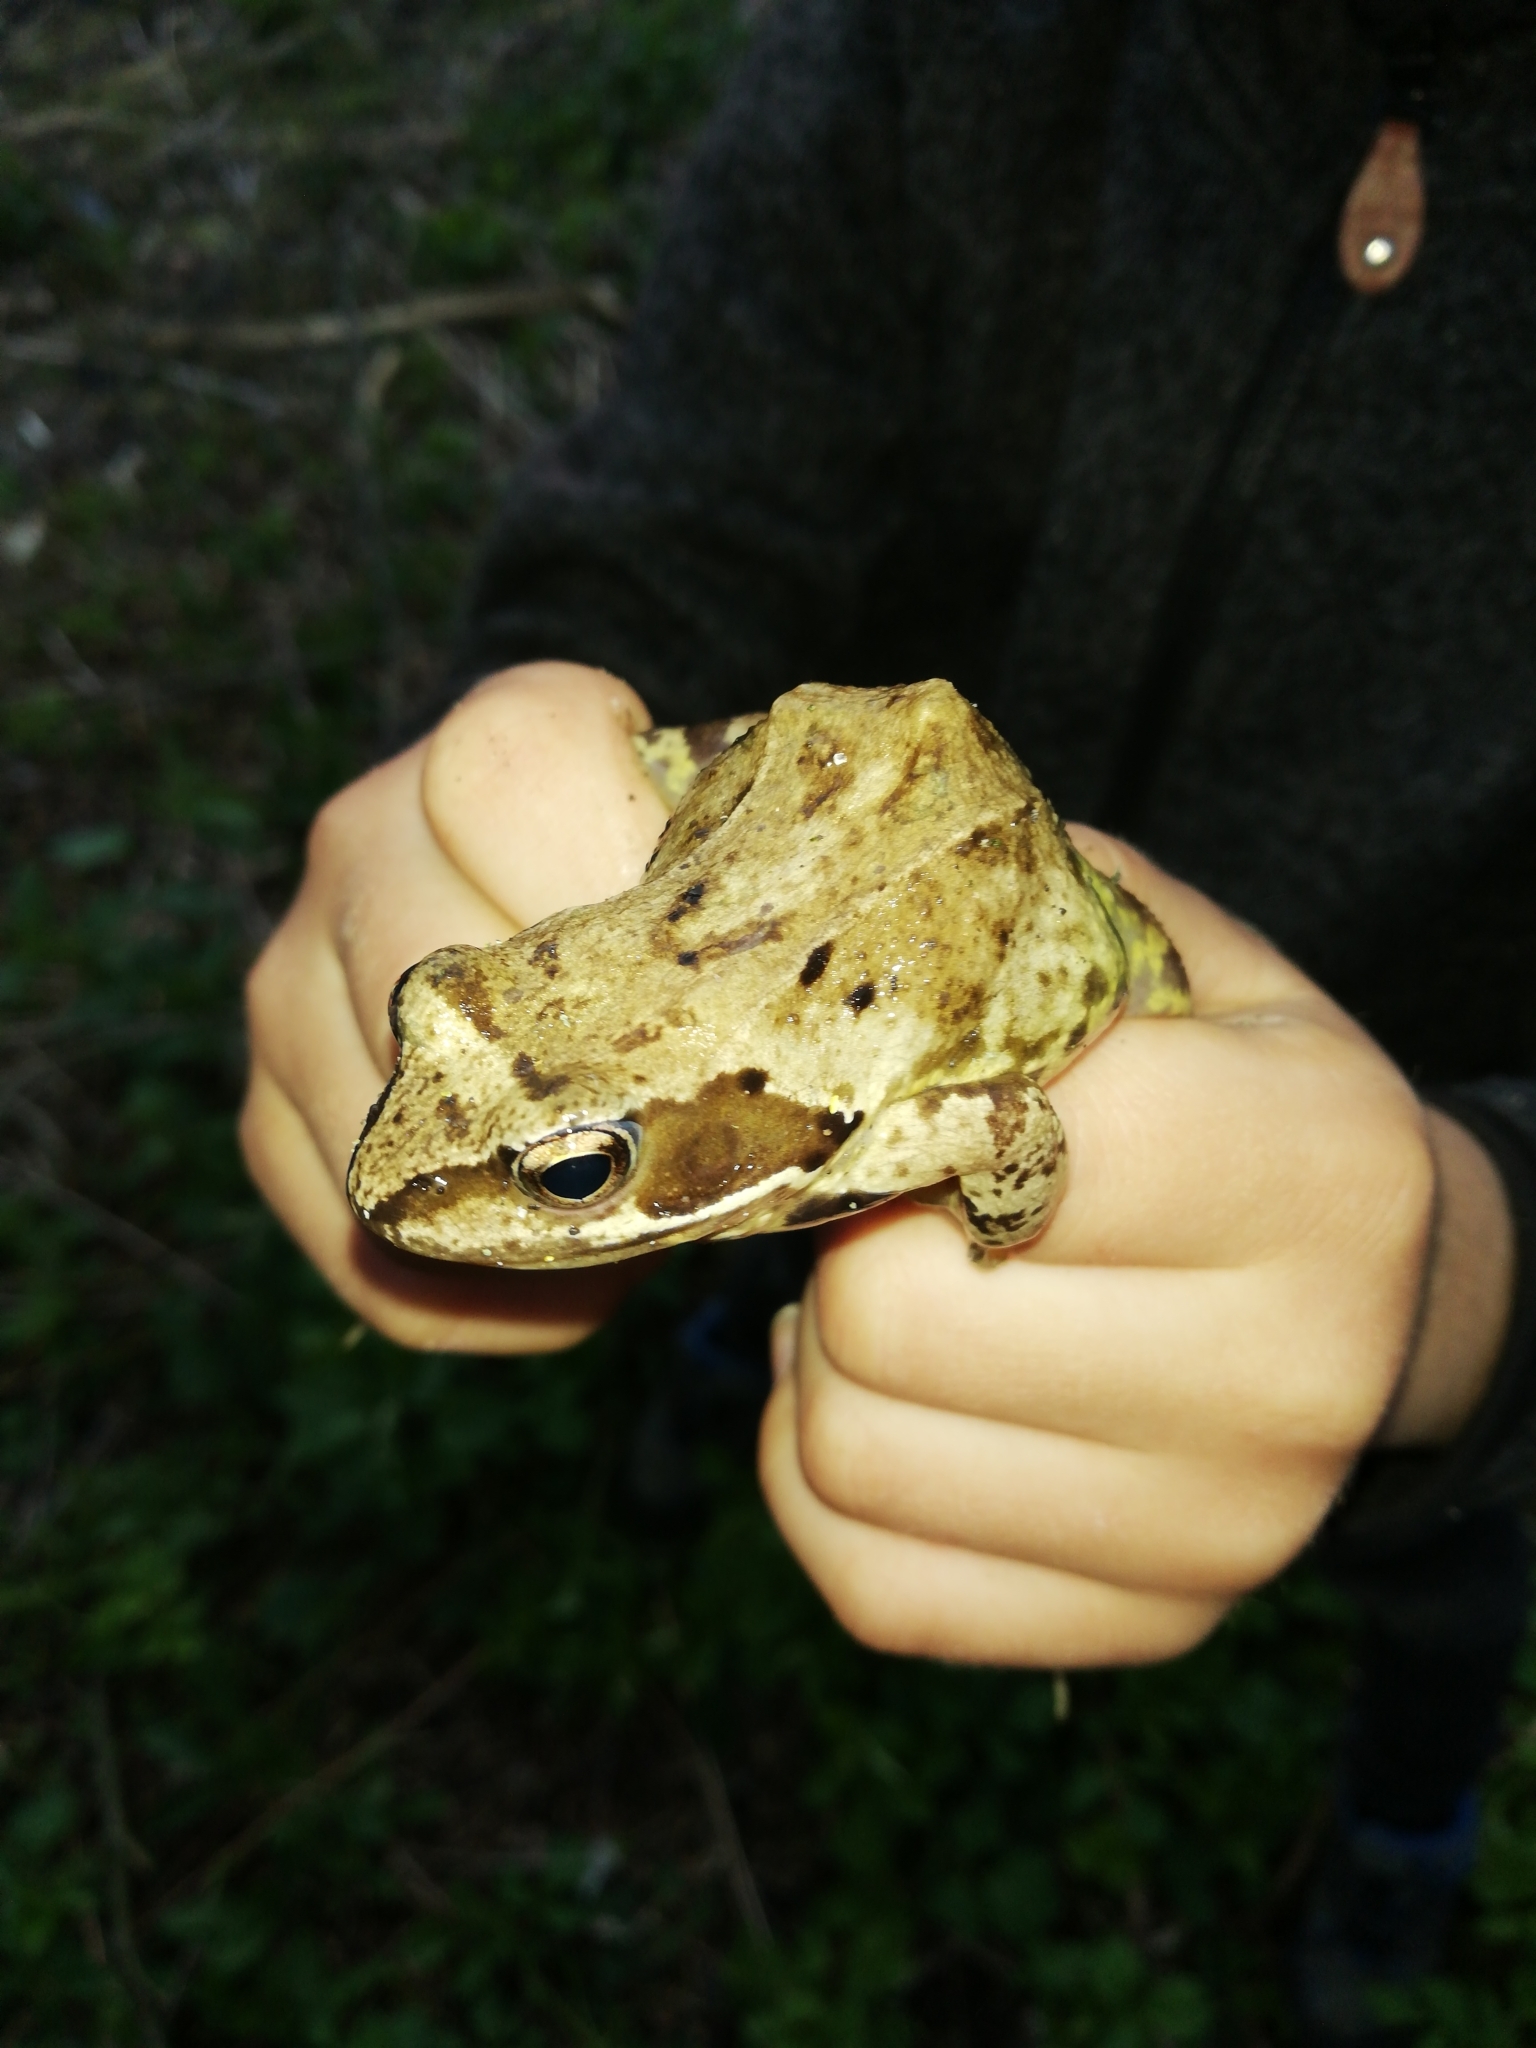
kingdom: Animalia
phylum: Chordata
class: Amphibia
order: Anura
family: Ranidae
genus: Rana
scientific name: Rana temporaria
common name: Common frog
